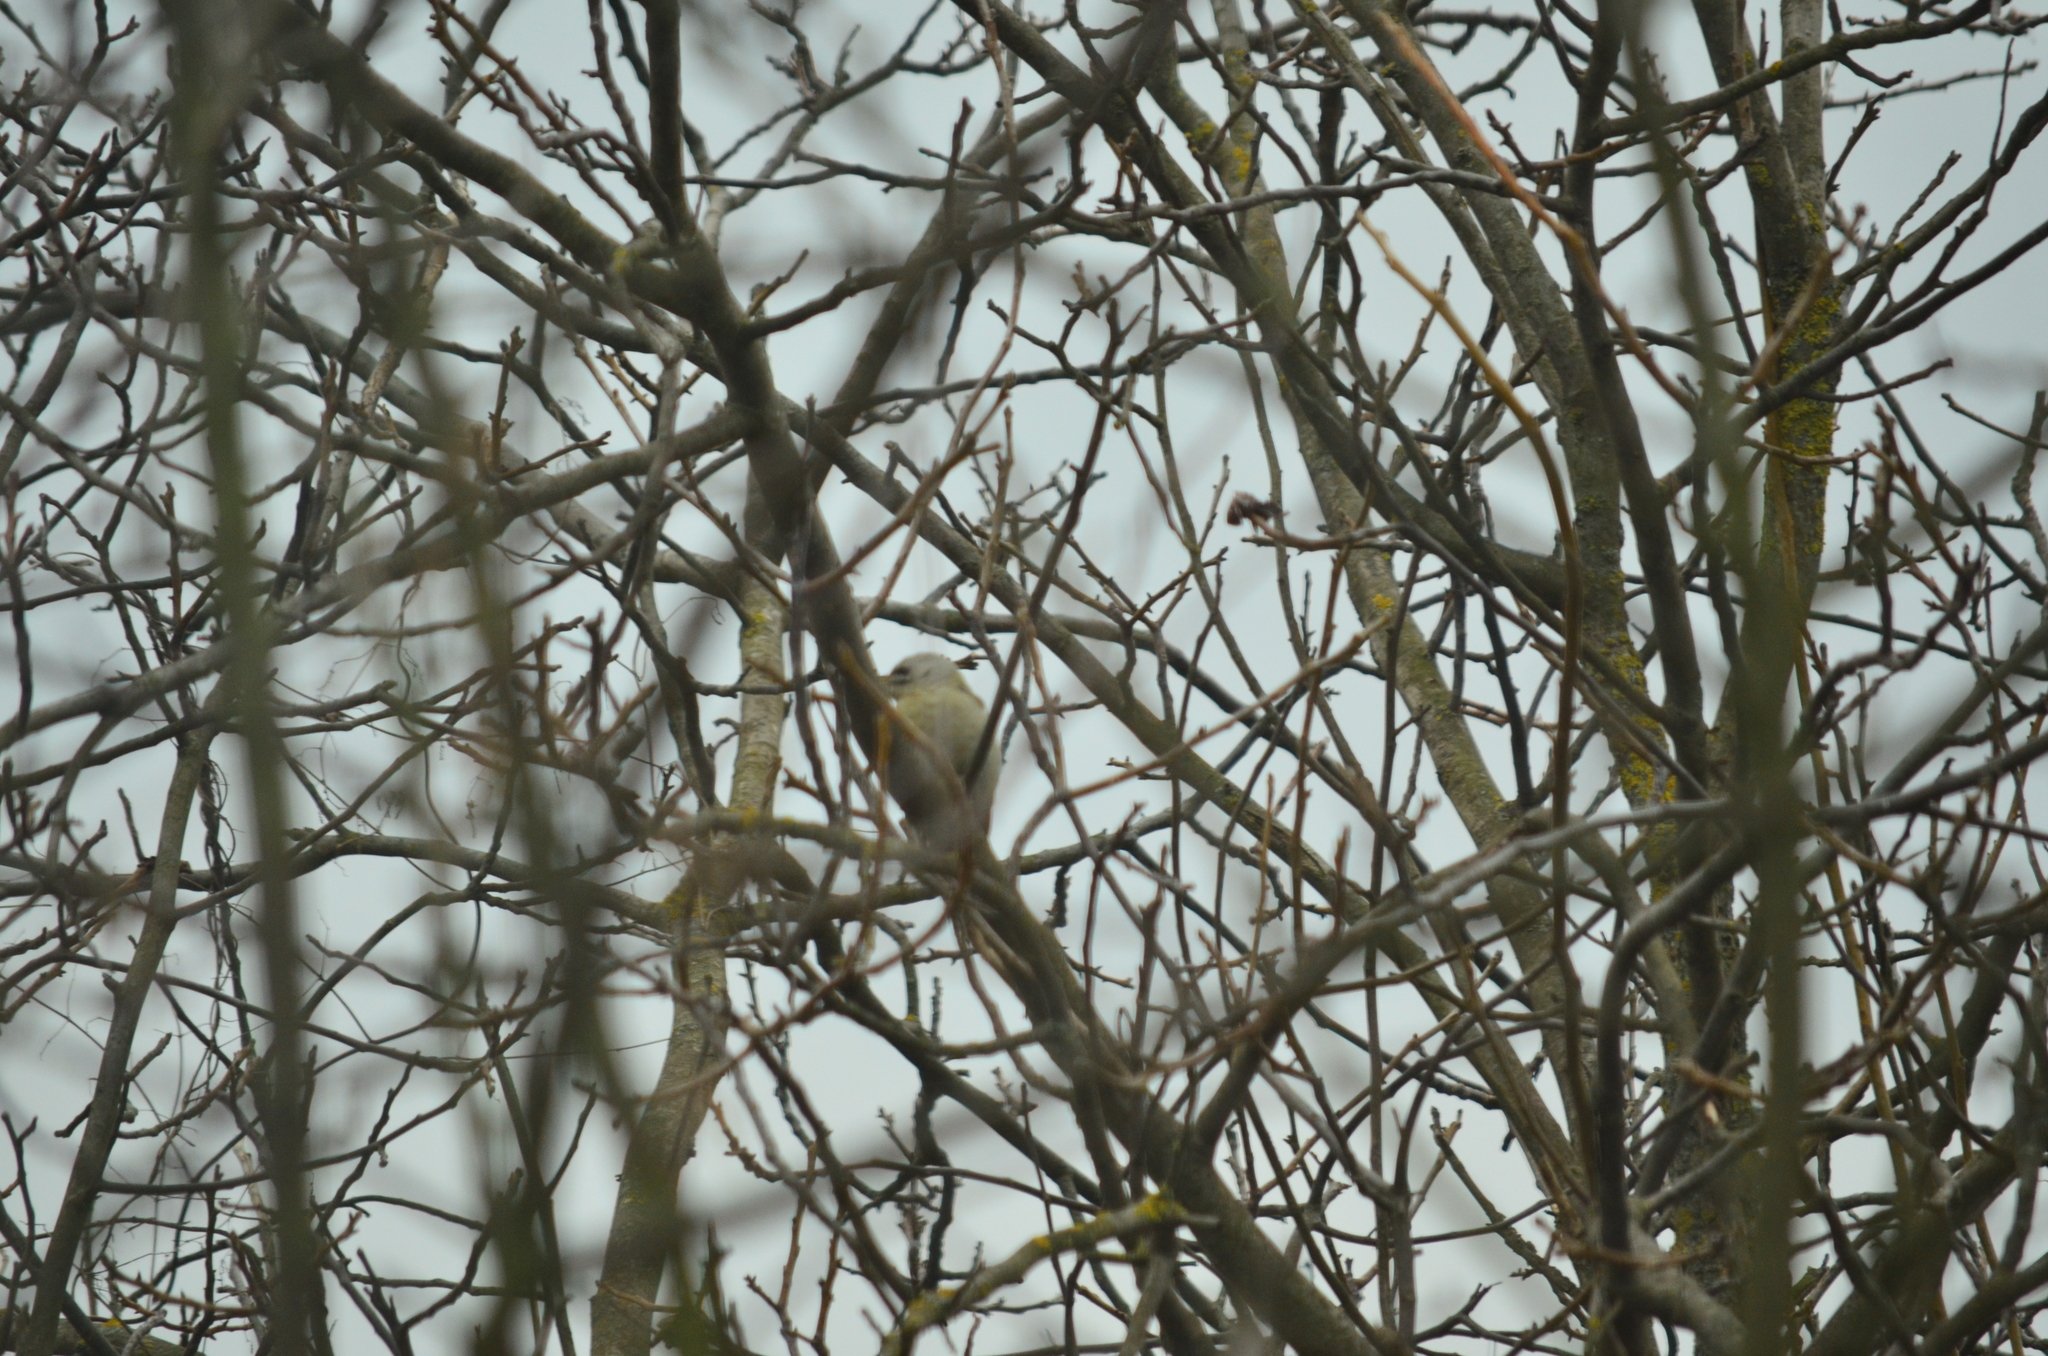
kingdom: Animalia
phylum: Chordata
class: Aves
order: Piciformes
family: Picidae
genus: Picus
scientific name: Picus canus
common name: Grey-headed woodpecker
